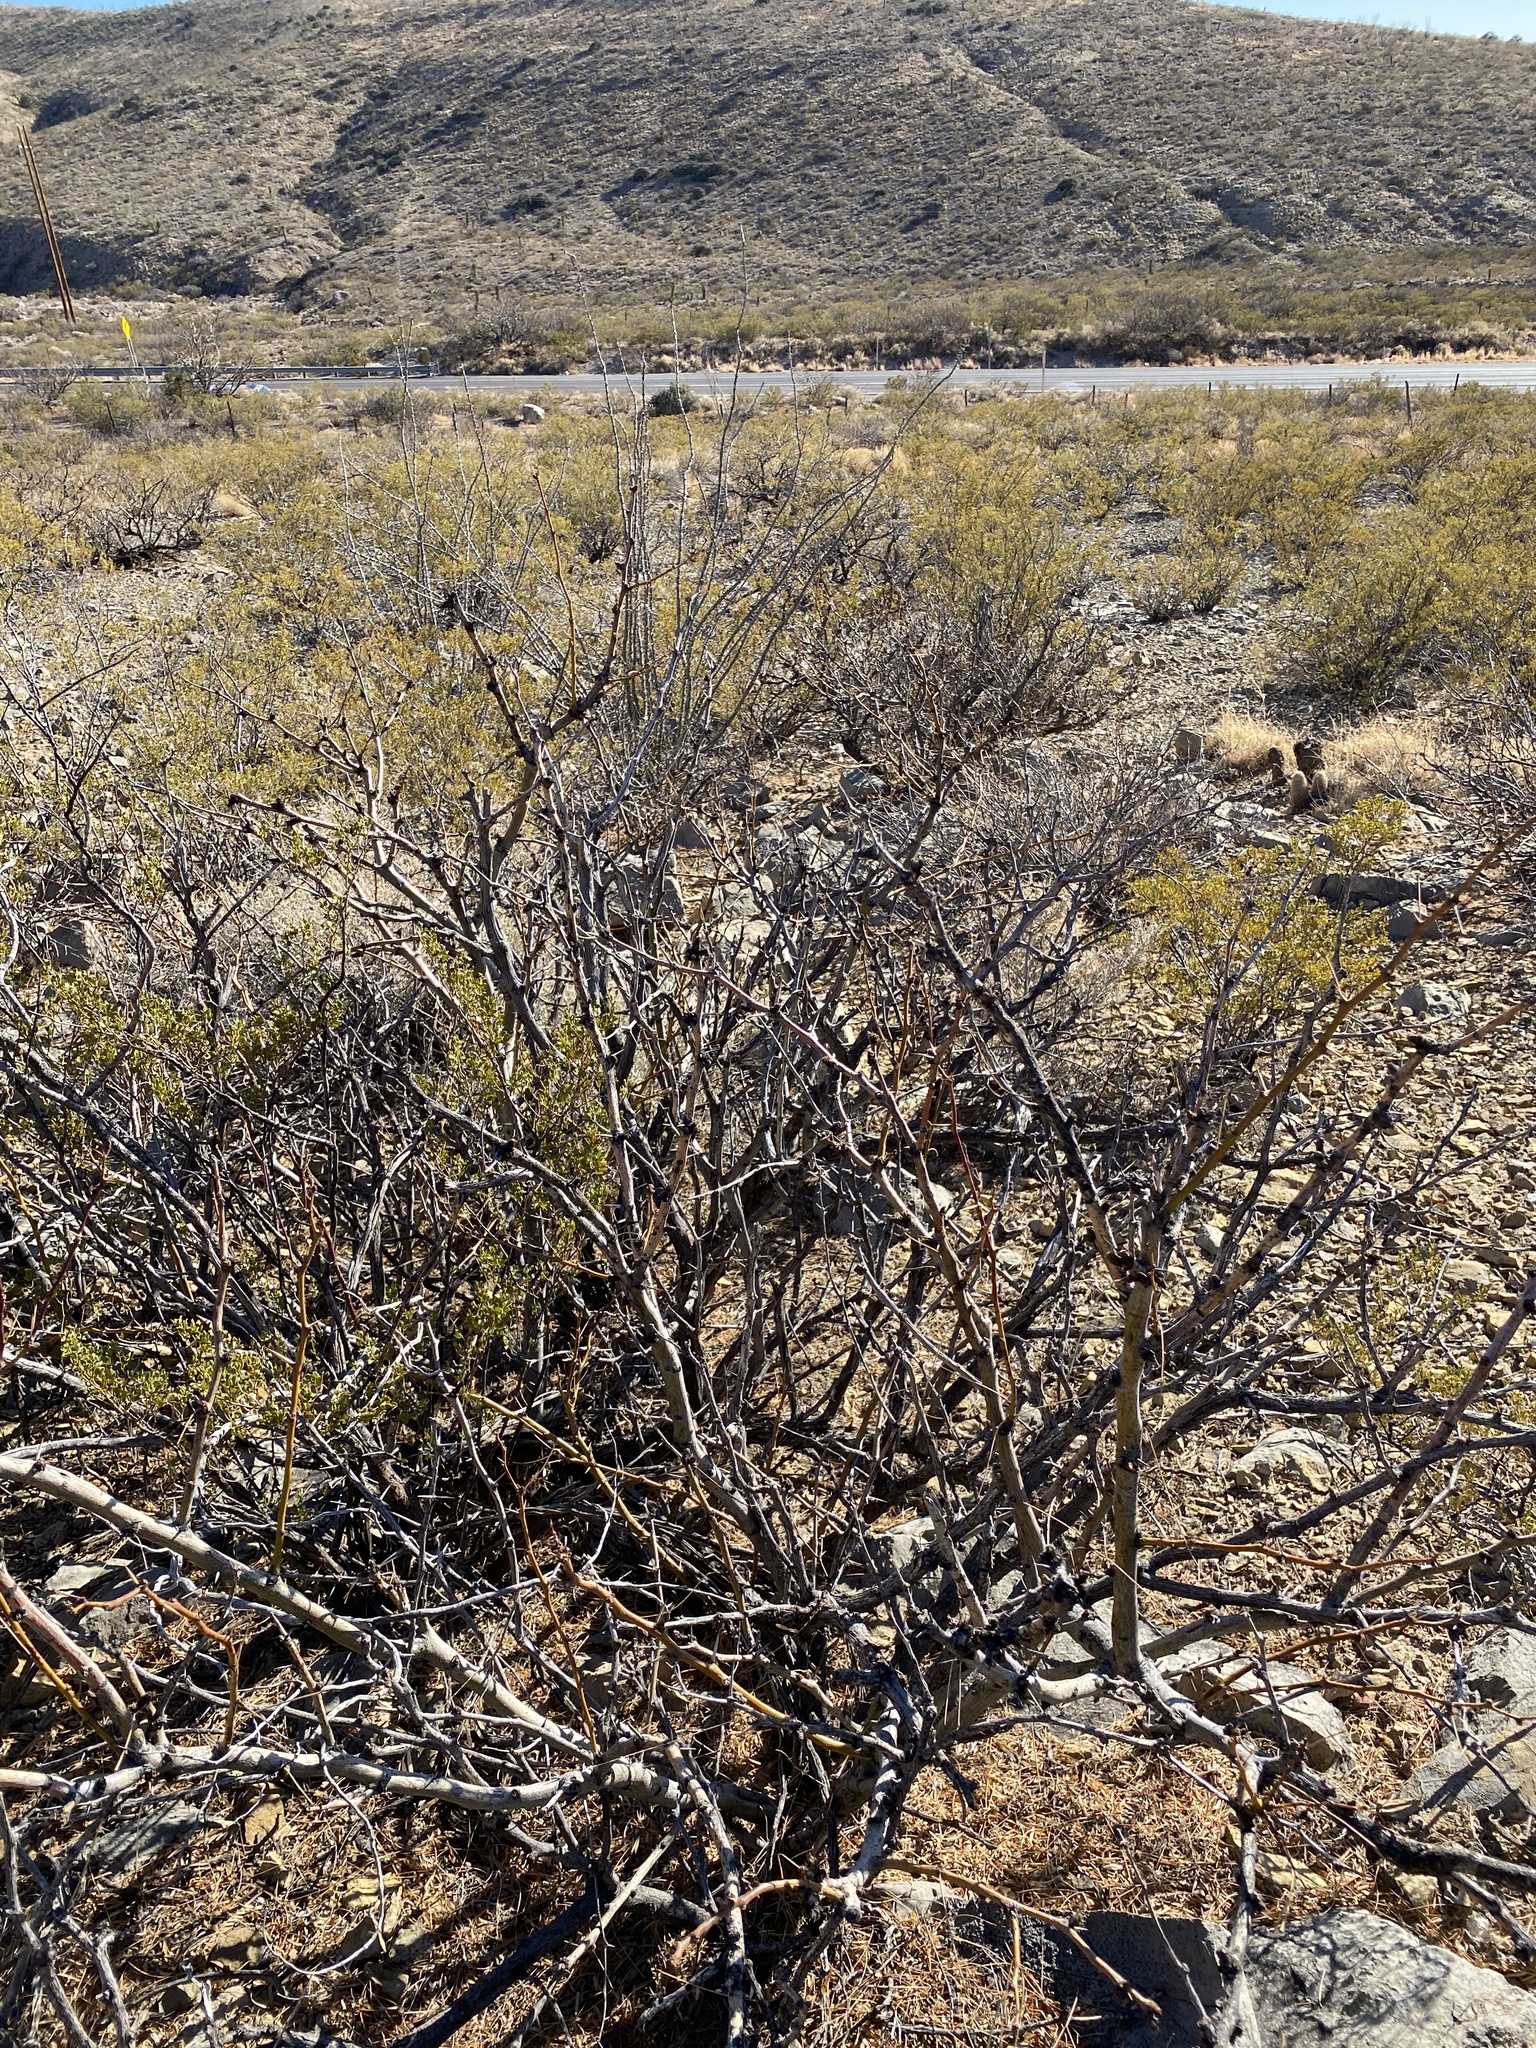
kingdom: Plantae
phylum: Tracheophyta
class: Magnoliopsida
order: Fabales
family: Fabaceae
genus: Prosopis
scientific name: Prosopis glandulosa
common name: Honey mesquite
